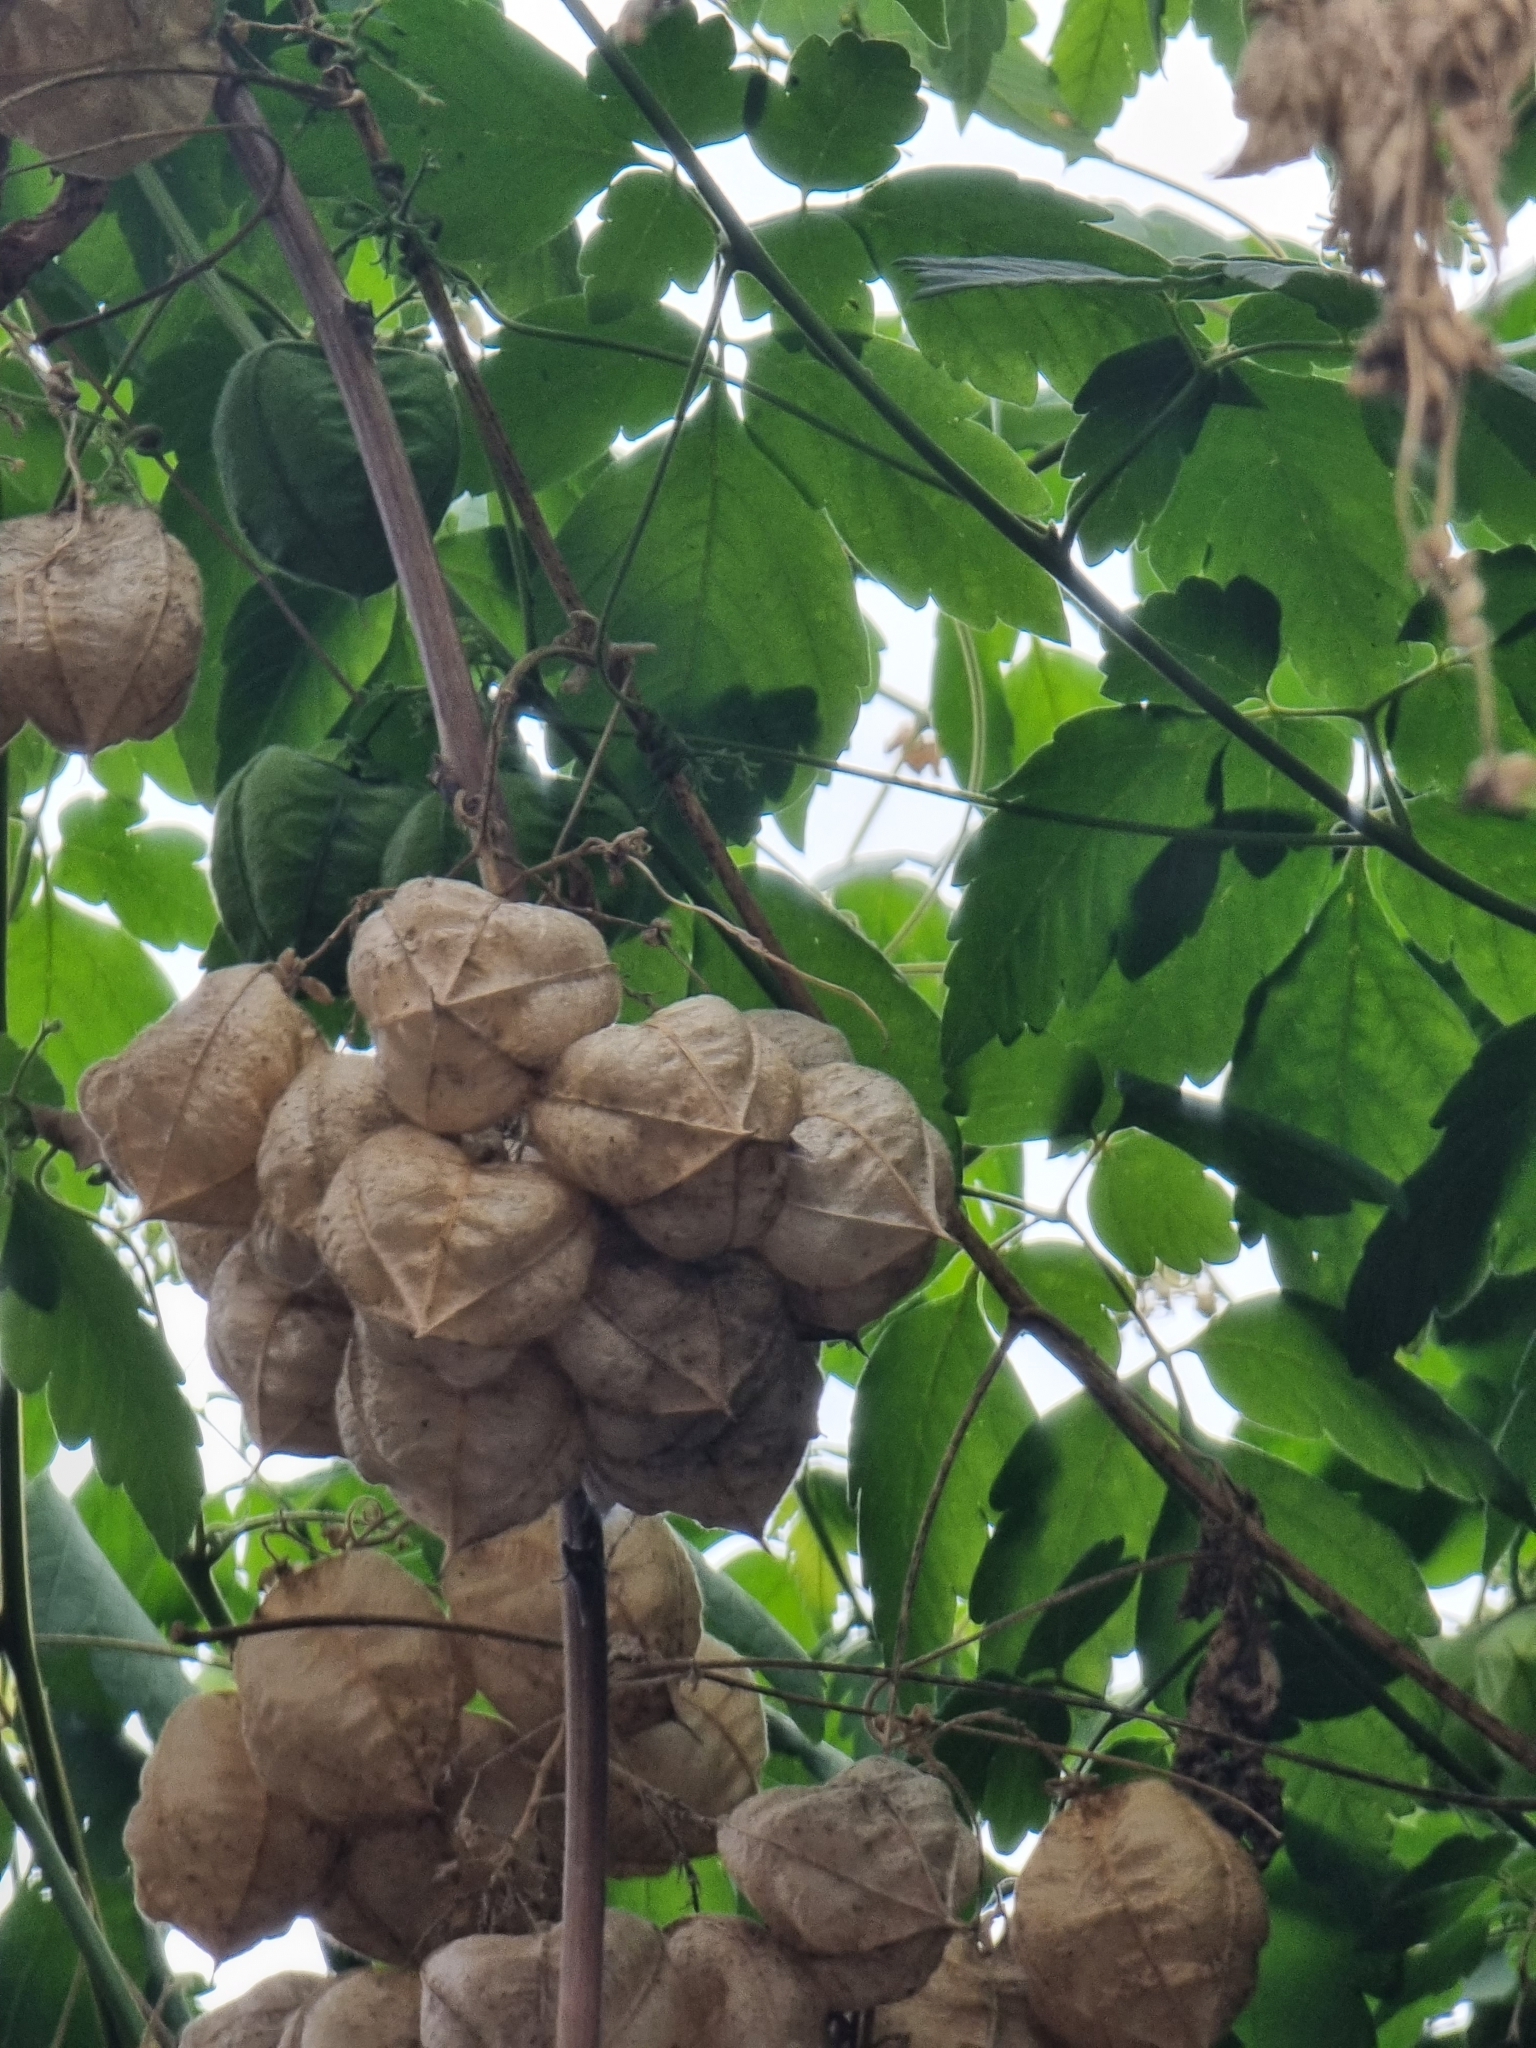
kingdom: Plantae
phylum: Tracheophyta
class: Magnoliopsida
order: Sapindales
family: Sapindaceae
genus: Cardiospermum
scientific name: Cardiospermum grandiflorum
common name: Balloon vine
